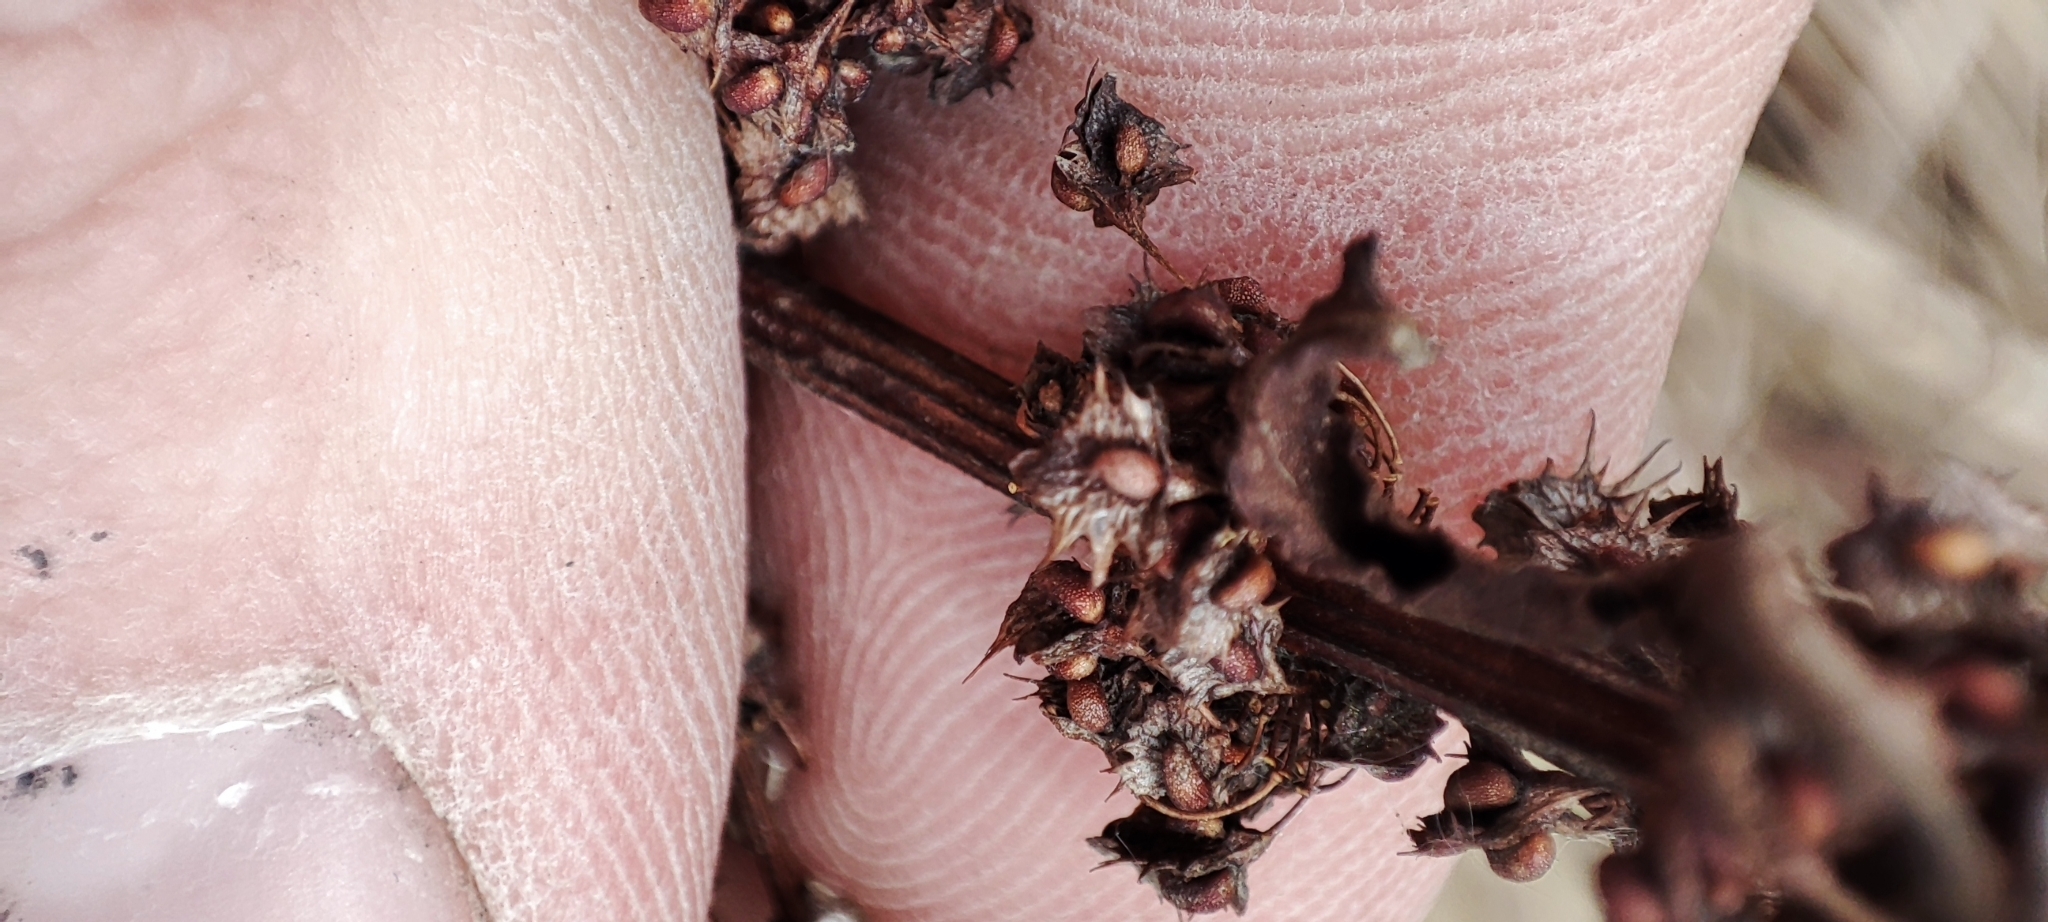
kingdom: Plantae
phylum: Tracheophyta
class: Magnoliopsida
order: Caryophyllales
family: Polygonaceae
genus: Rumex
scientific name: Rumex stenophyllus
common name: Narrowleaf dock
